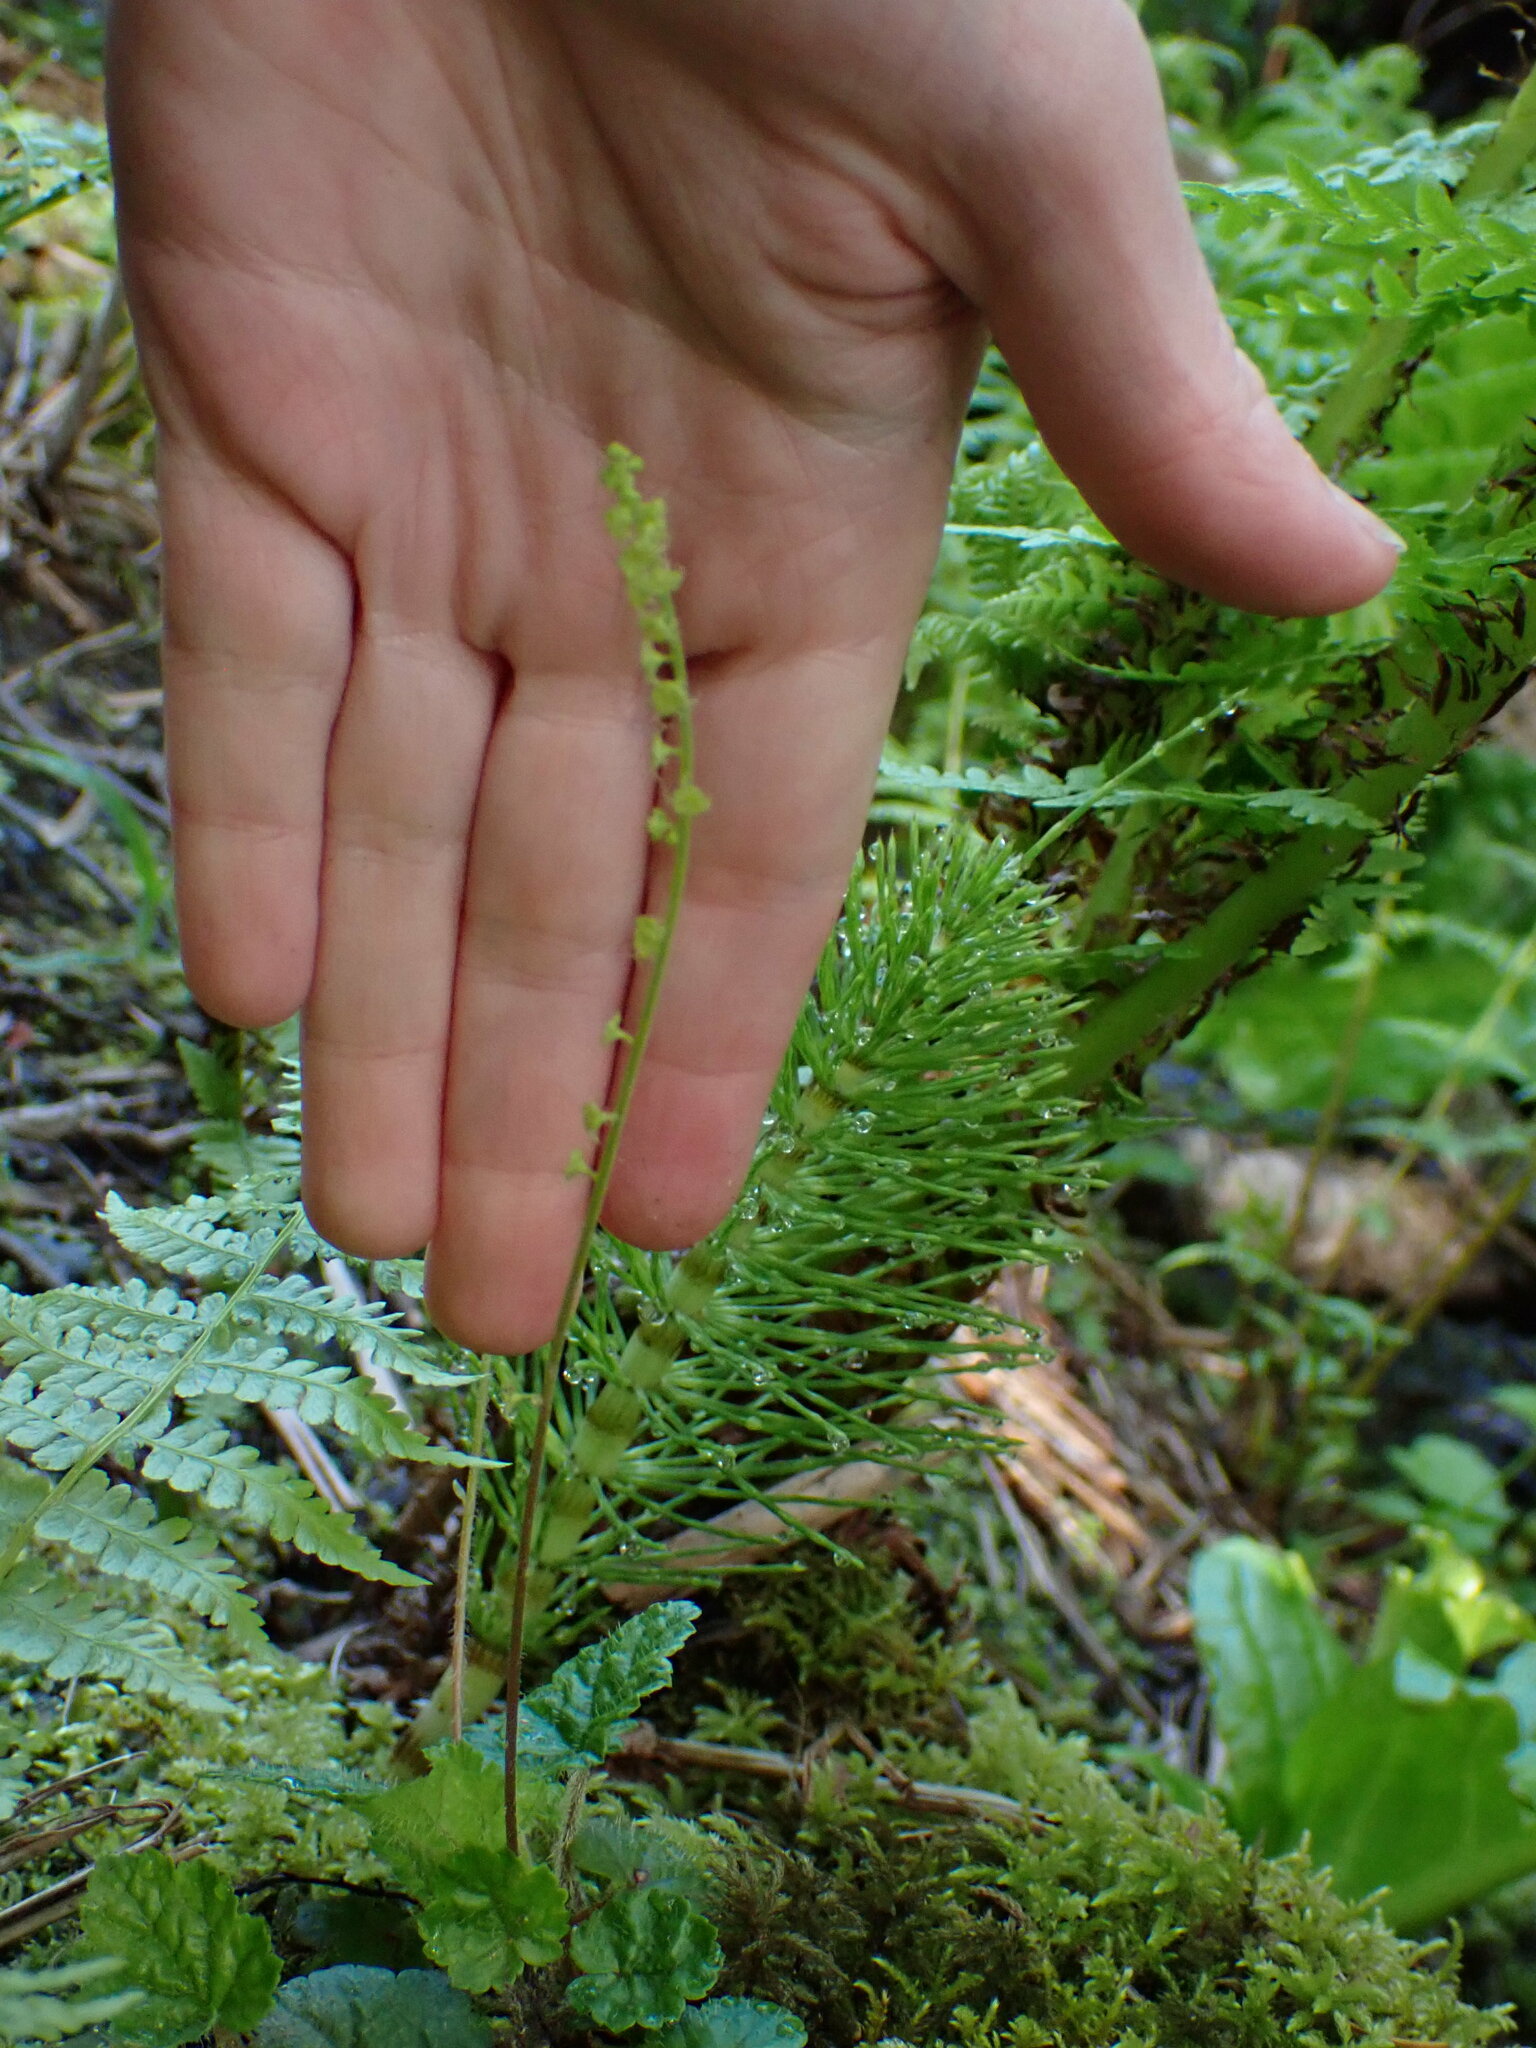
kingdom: Plantae
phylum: Tracheophyta
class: Magnoliopsida
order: Saxifragales
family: Saxifragaceae
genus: Brewerimitella
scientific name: Brewerimitella ovalis
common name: Coastal bishop's-cap
